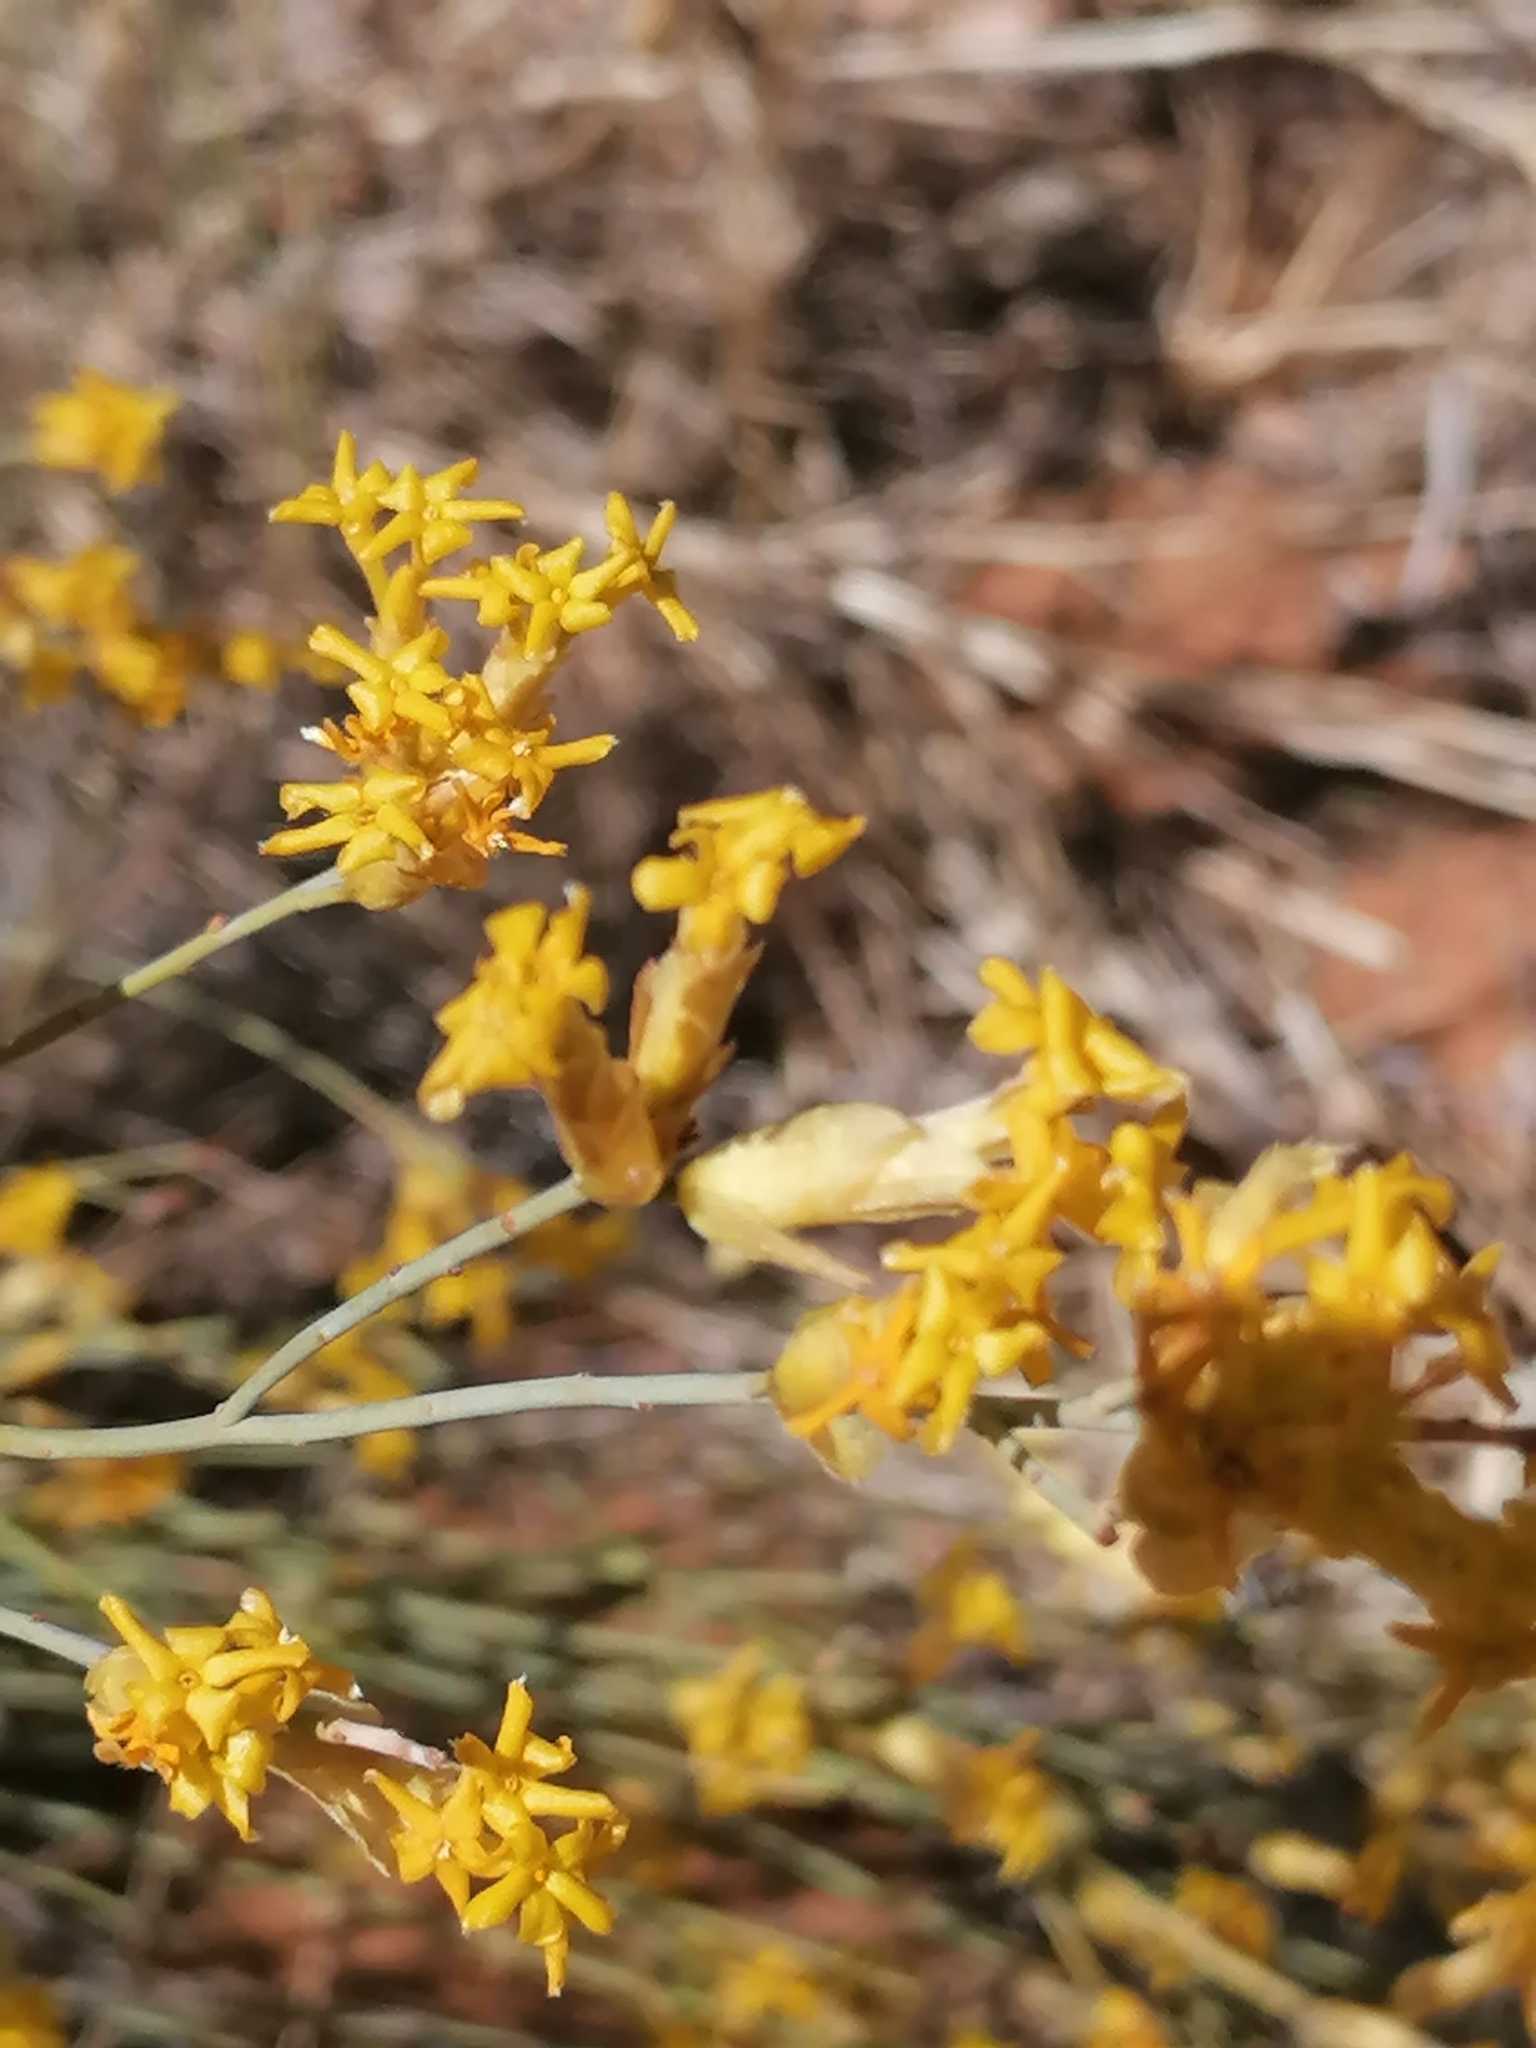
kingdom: Plantae
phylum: Tracheophyta
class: Magnoliopsida
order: Malvales
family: Thymelaeaceae
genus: Gnidia
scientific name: Gnidia polycephala
